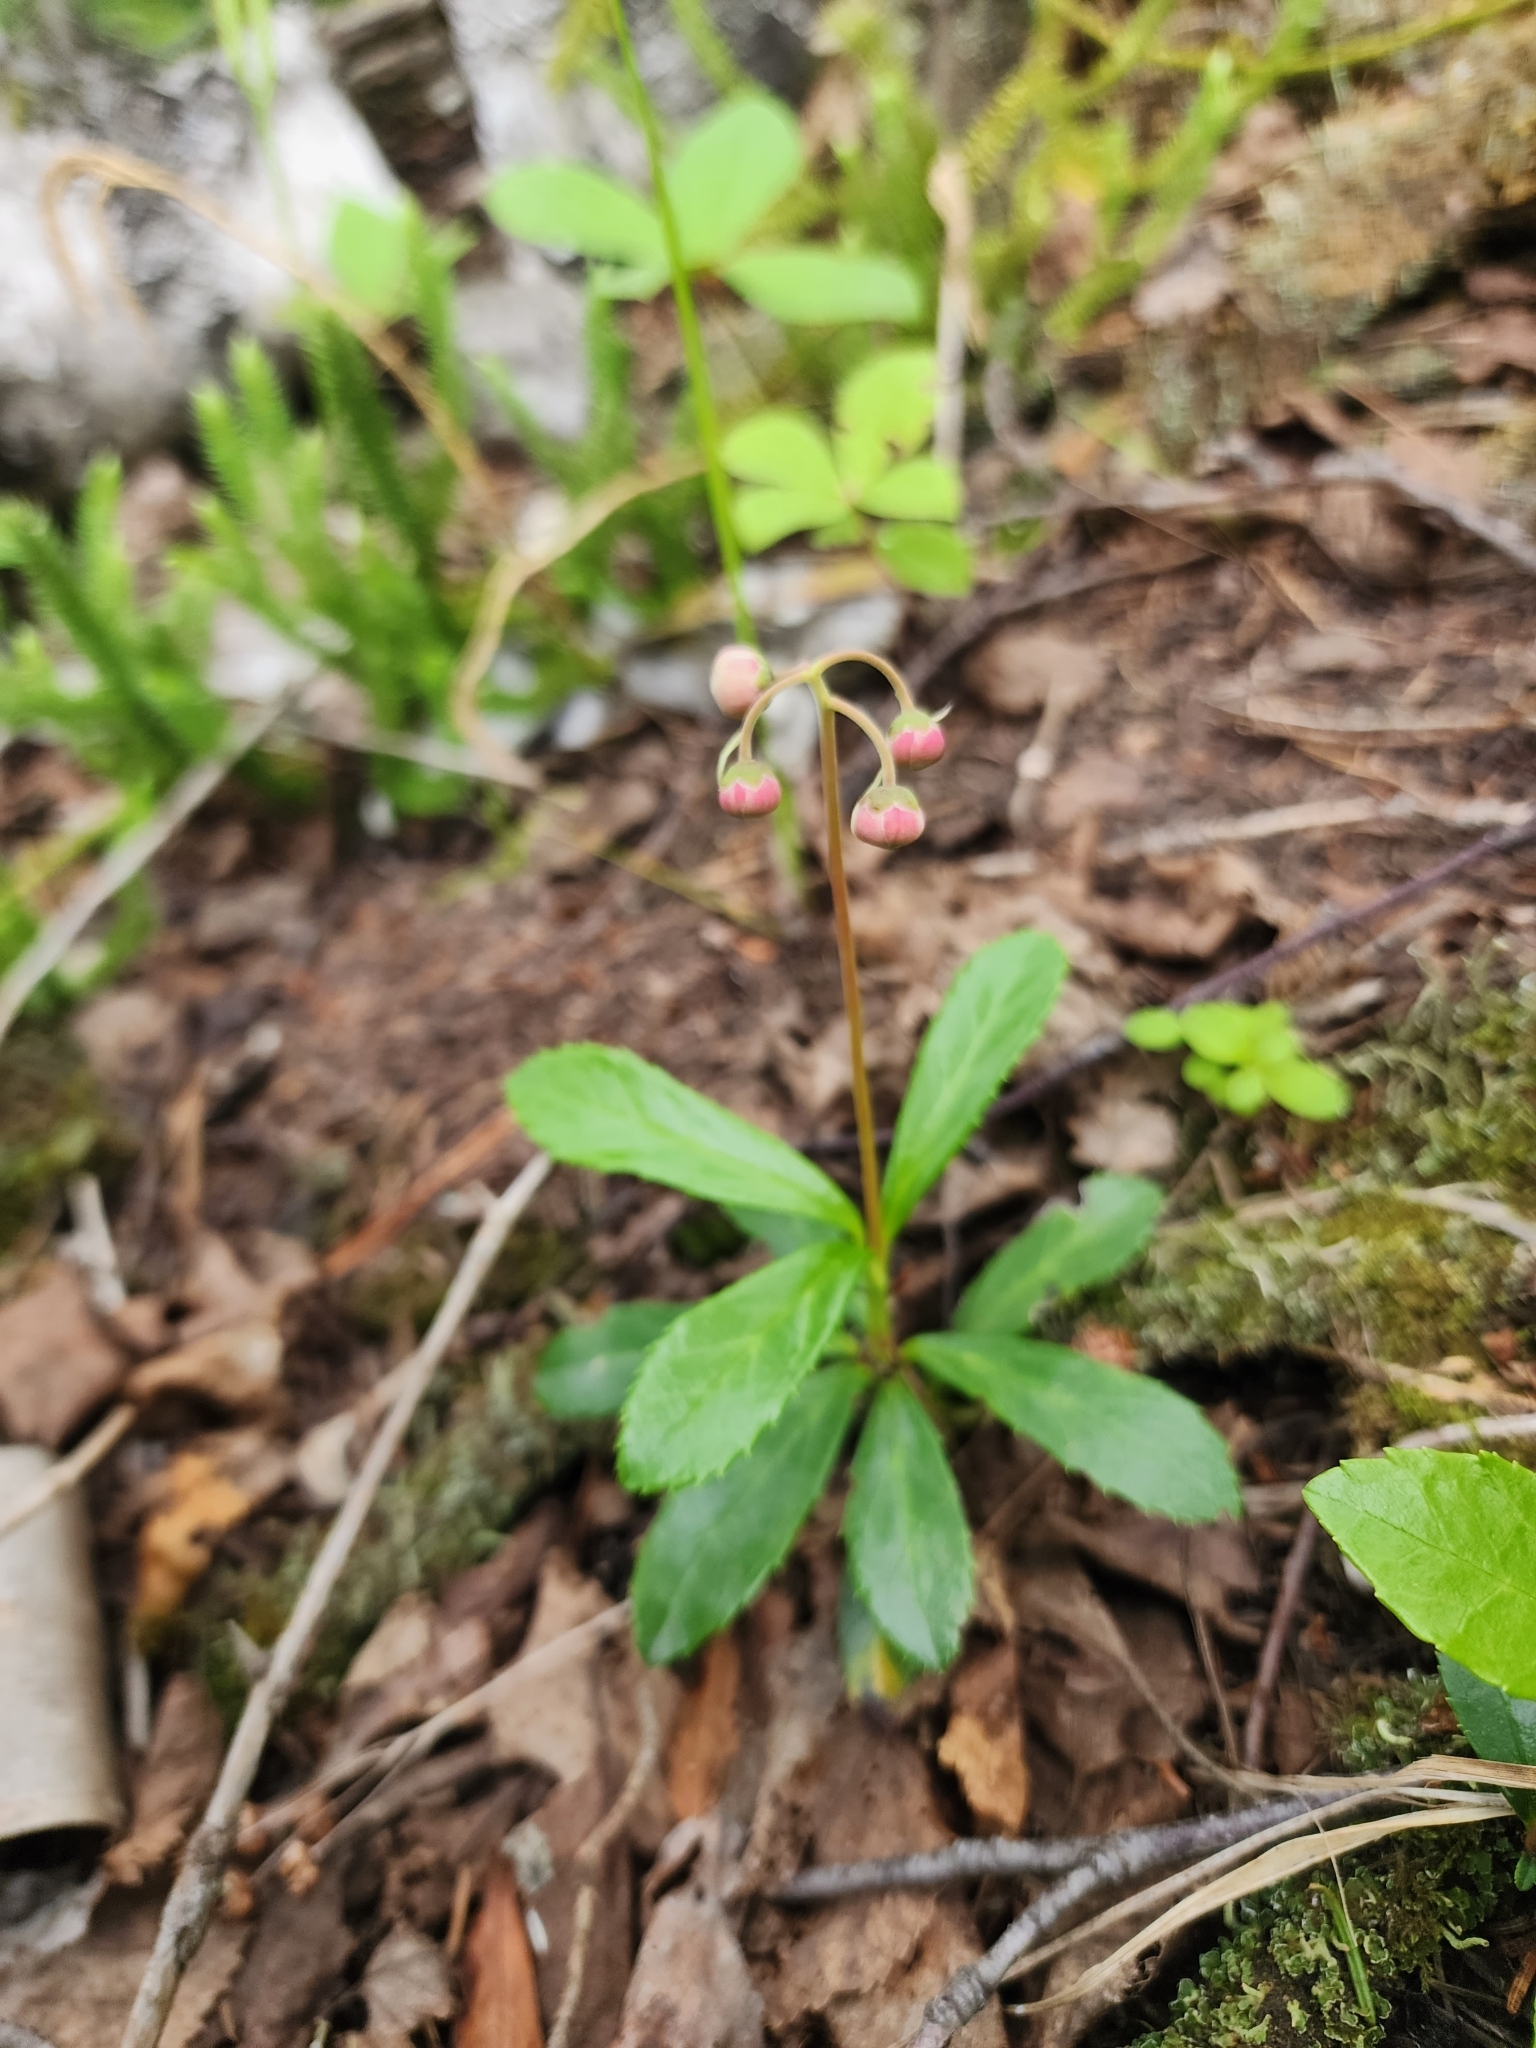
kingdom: Plantae
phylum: Tracheophyta
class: Magnoliopsida
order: Ericales
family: Ericaceae
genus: Chimaphila
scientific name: Chimaphila umbellata
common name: Pipsissewa
